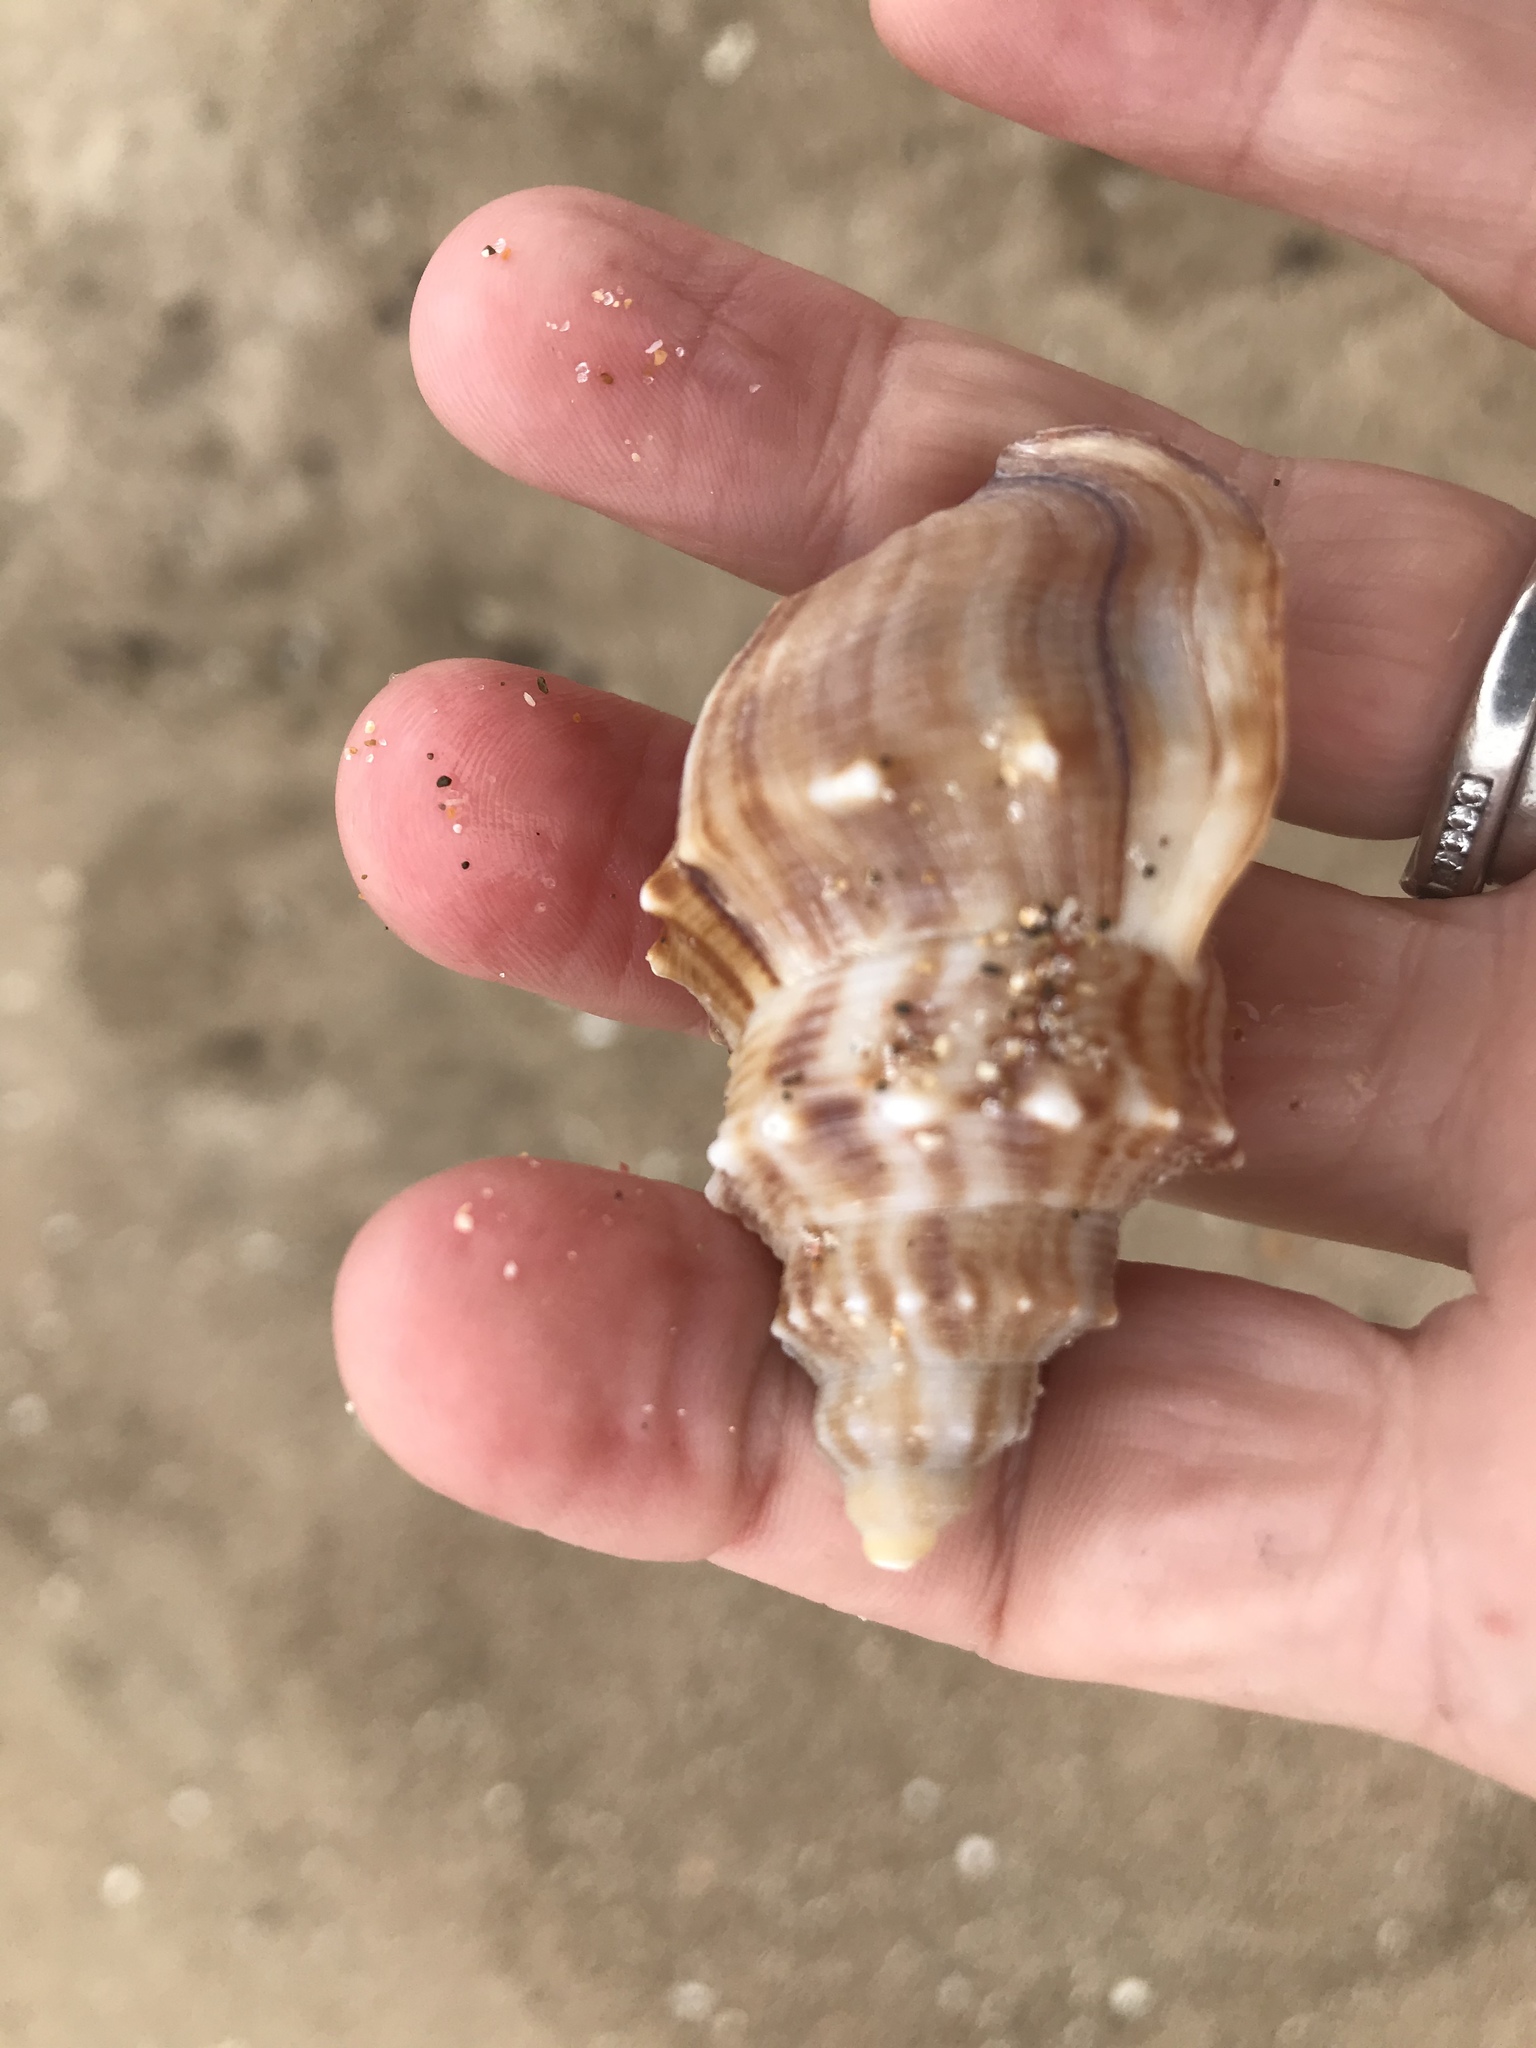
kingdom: Animalia
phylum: Mollusca
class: Gastropoda
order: Littorinimorpha
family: Struthiolariidae
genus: Struthiolaria
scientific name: Struthiolaria papulosa
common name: Large ostrich foot
